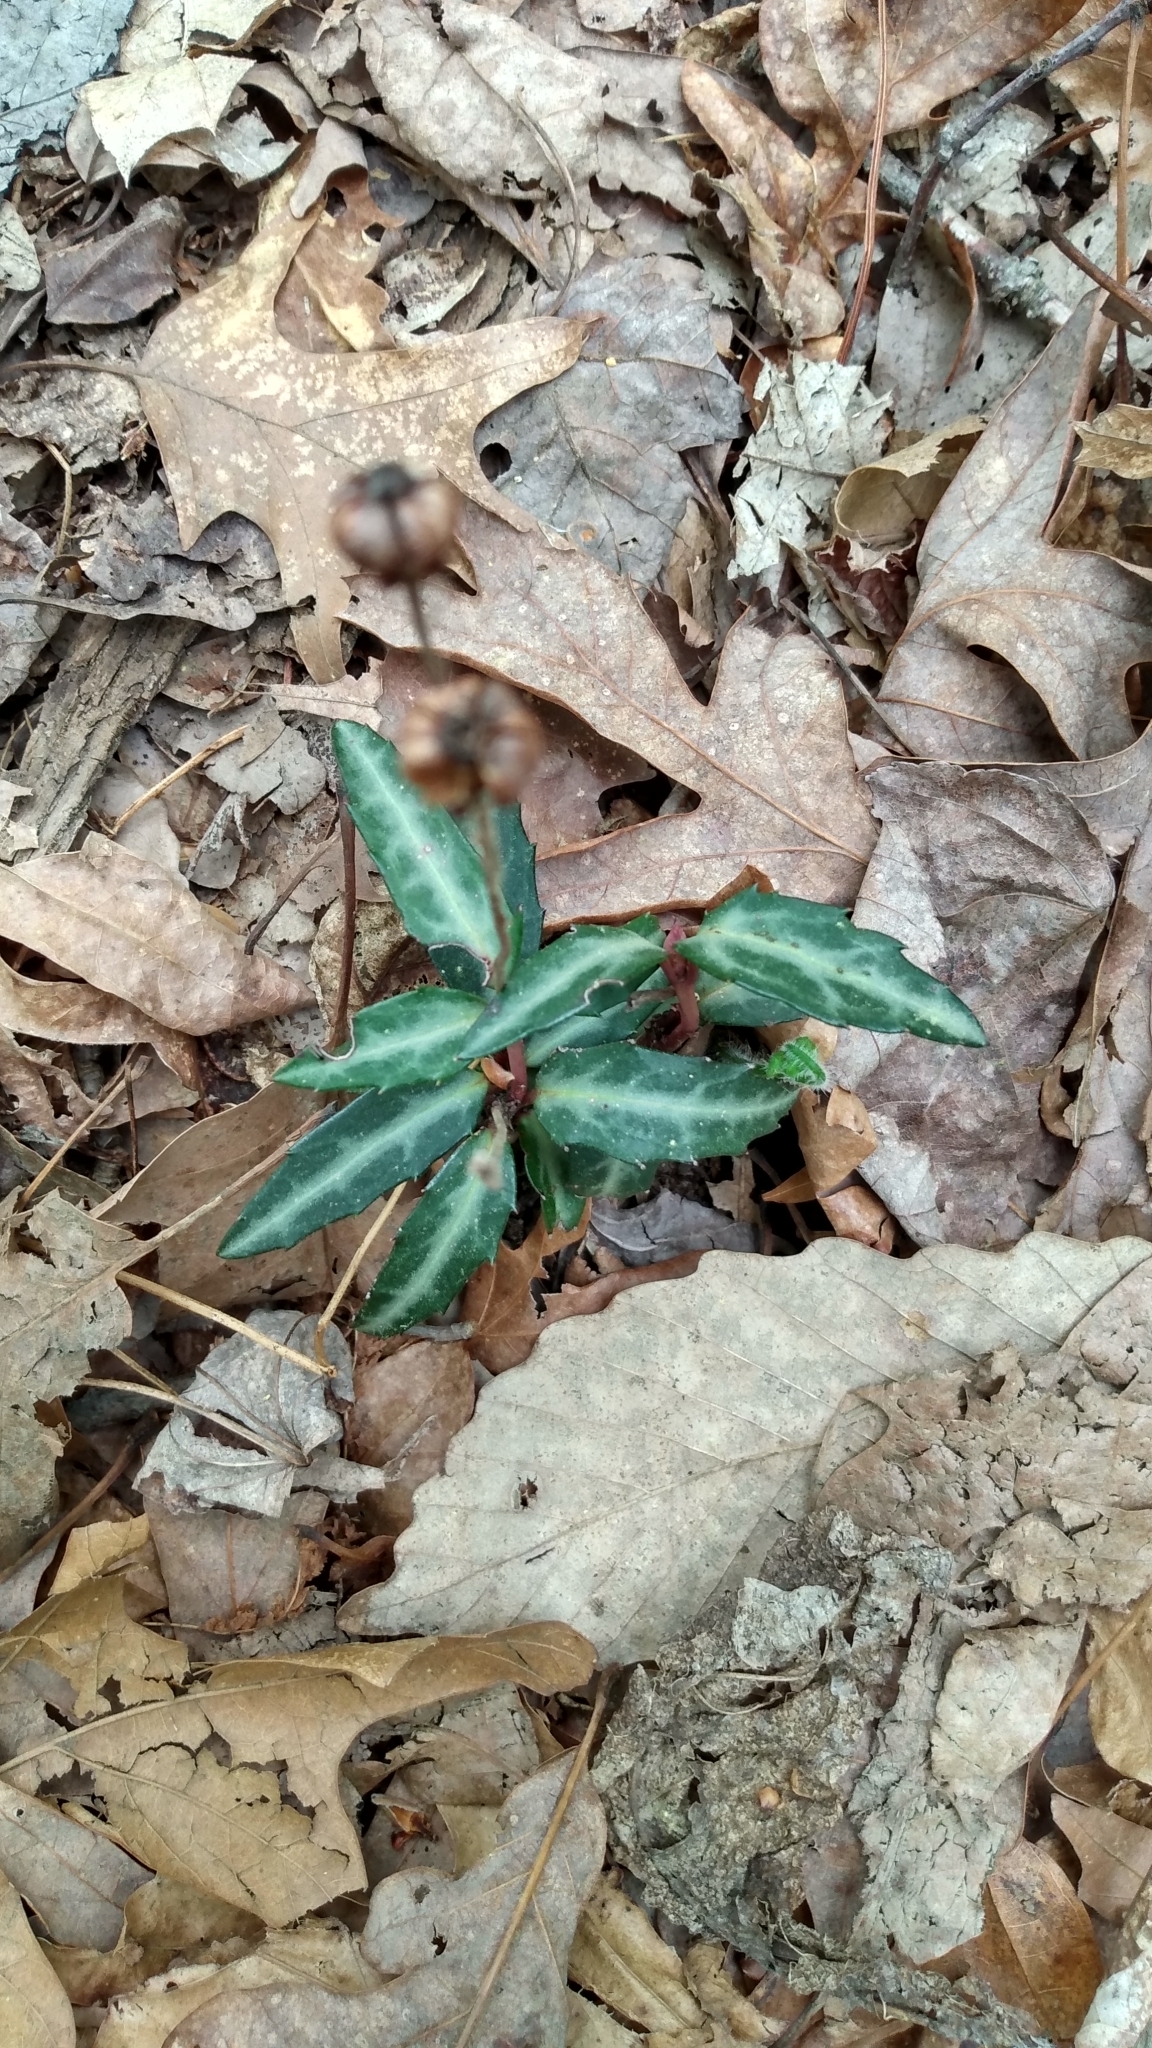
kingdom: Plantae
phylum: Tracheophyta
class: Magnoliopsida
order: Ericales
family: Ericaceae
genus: Chimaphila
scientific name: Chimaphila maculata
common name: Spotted pipsissewa
